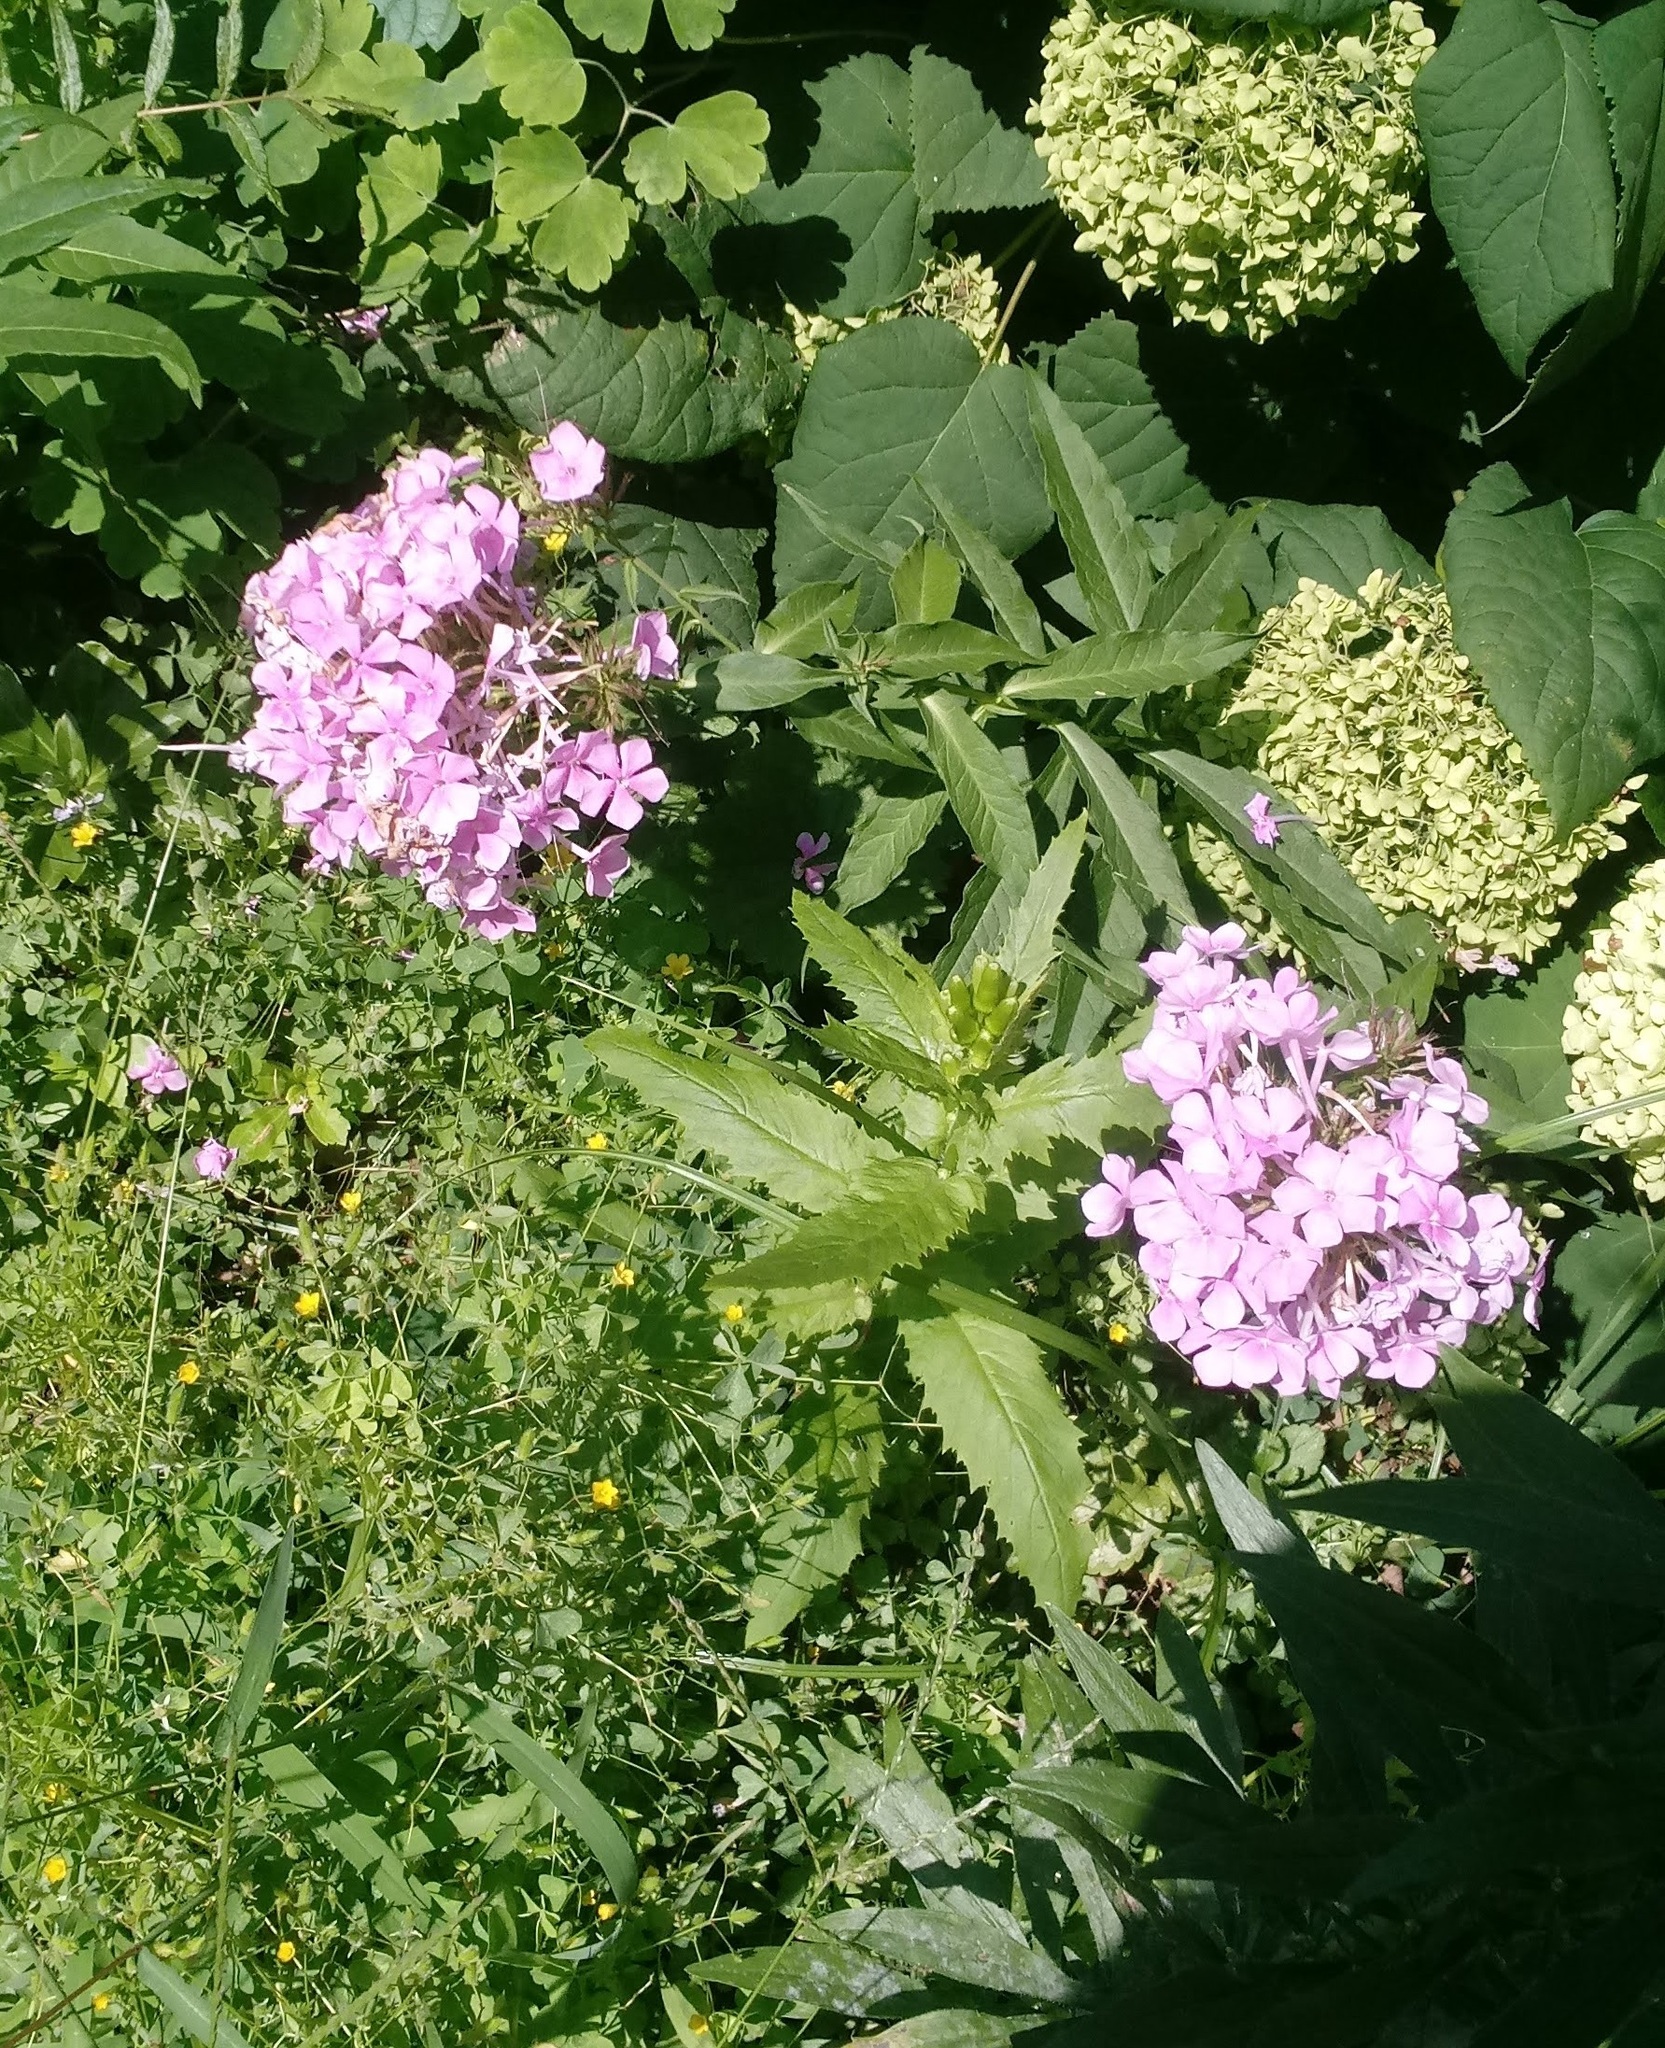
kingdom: Plantae
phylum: Tracheophyta
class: Magnoliopsida
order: Ericales
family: Polemoniaceae
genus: Phlox
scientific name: Phlox paniculata
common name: Fall phlox
